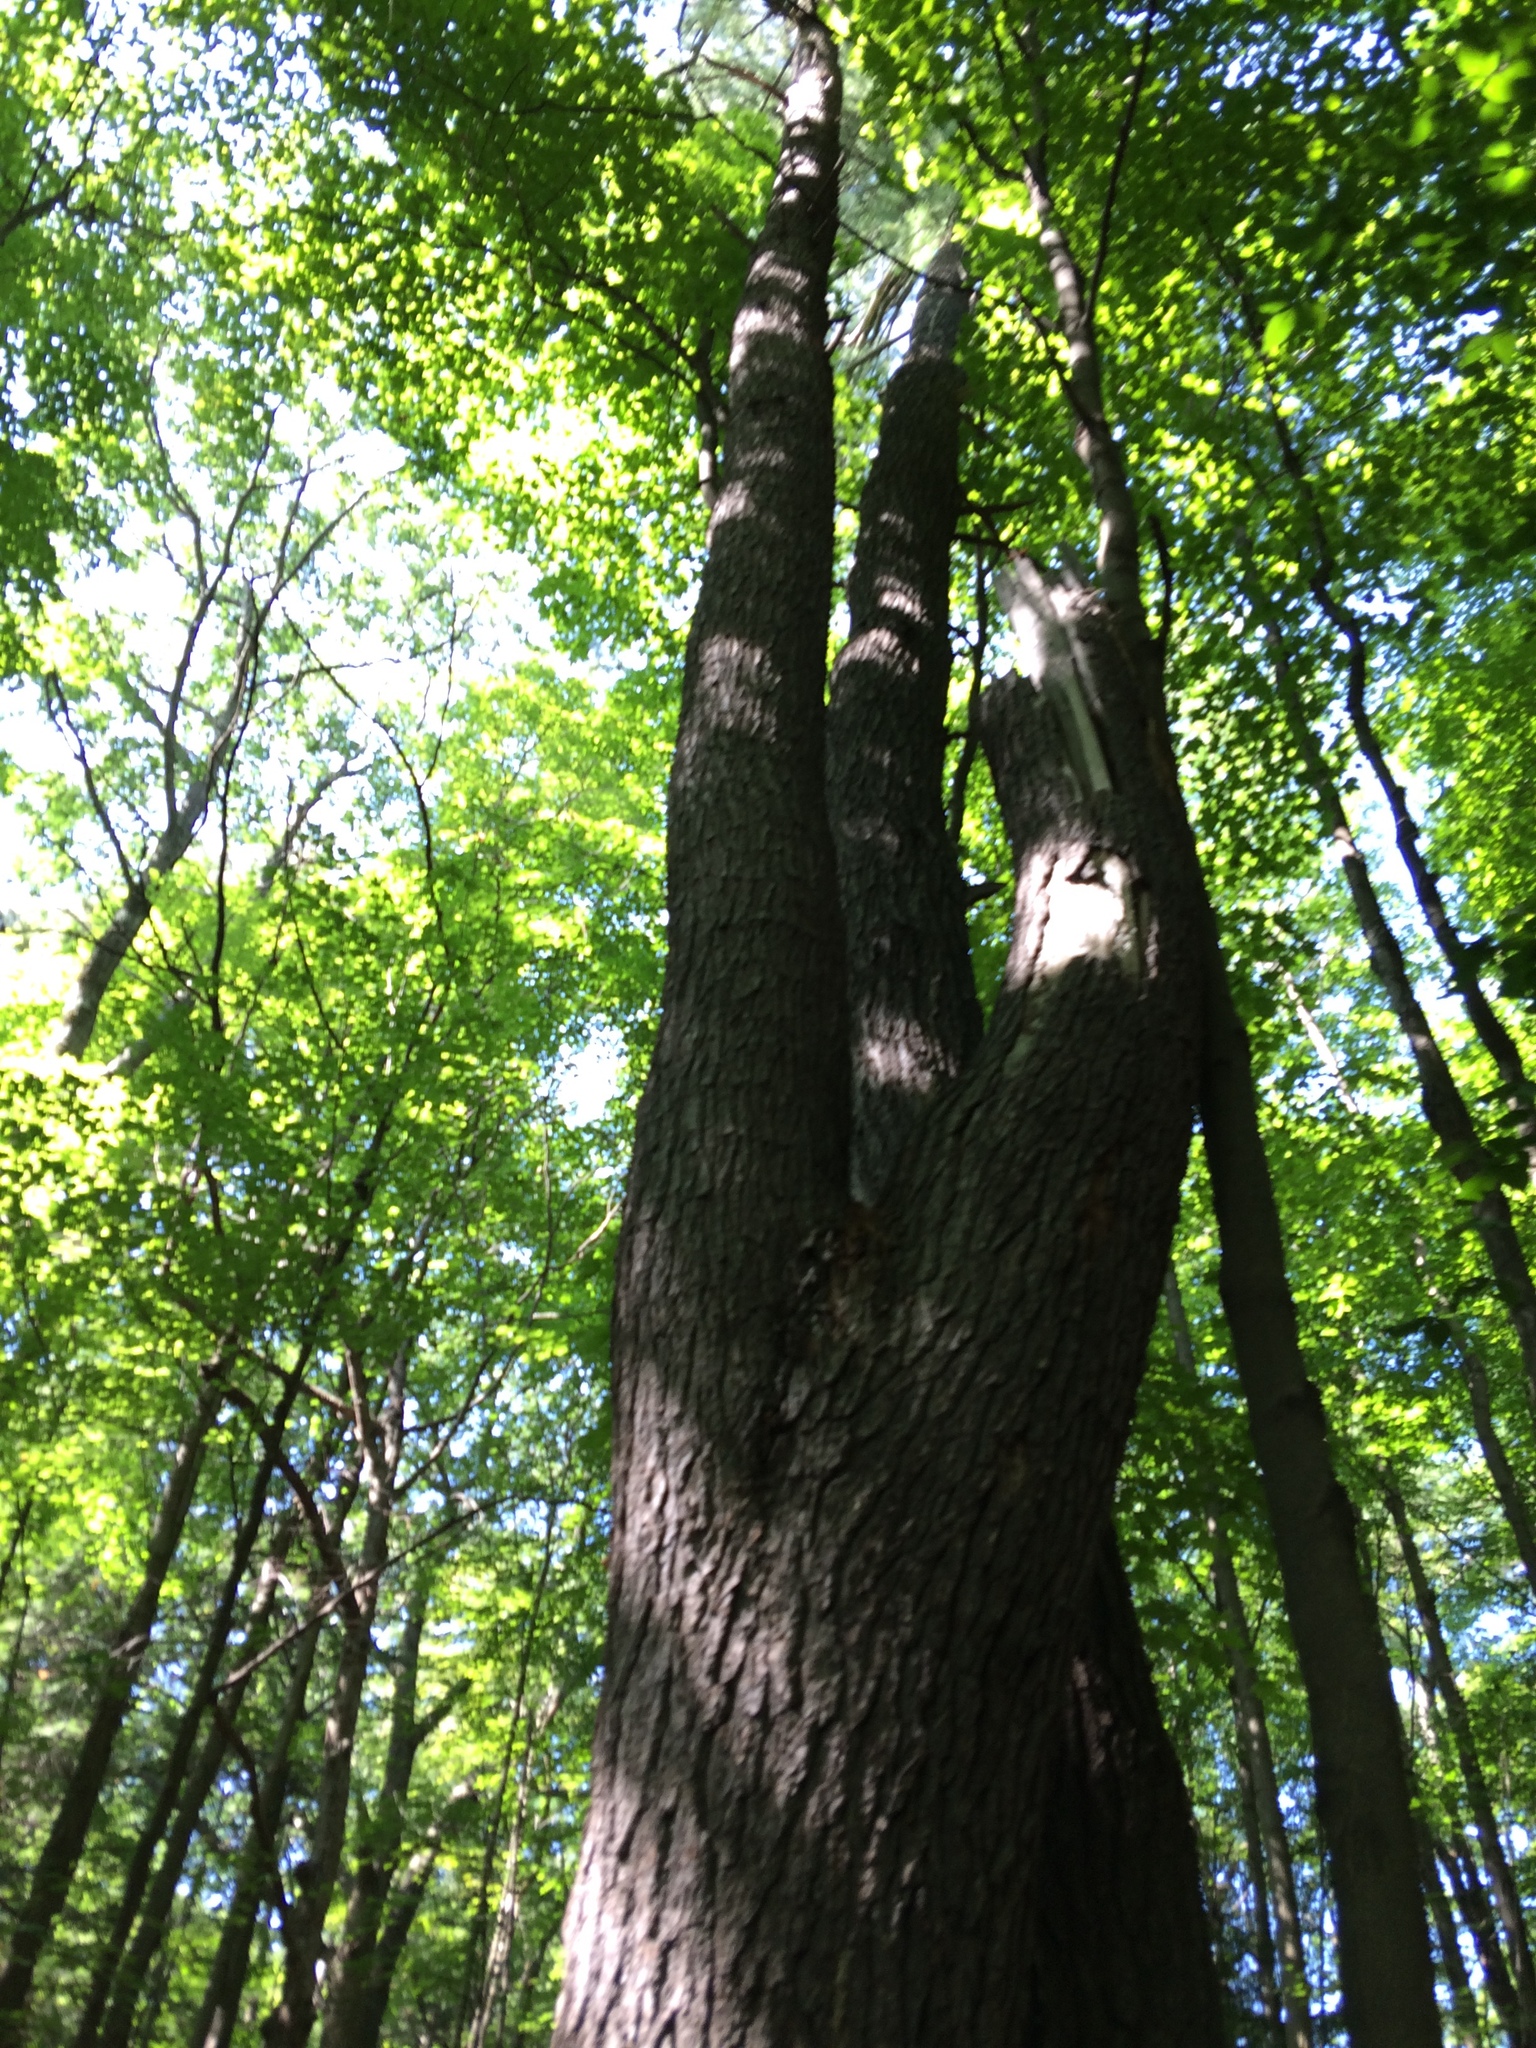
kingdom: Plantae
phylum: Tracheophyta
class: Pinopsida
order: Pinales
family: Pinaceae
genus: Pinus
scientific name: Pinus strobus
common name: Weymouth pine
